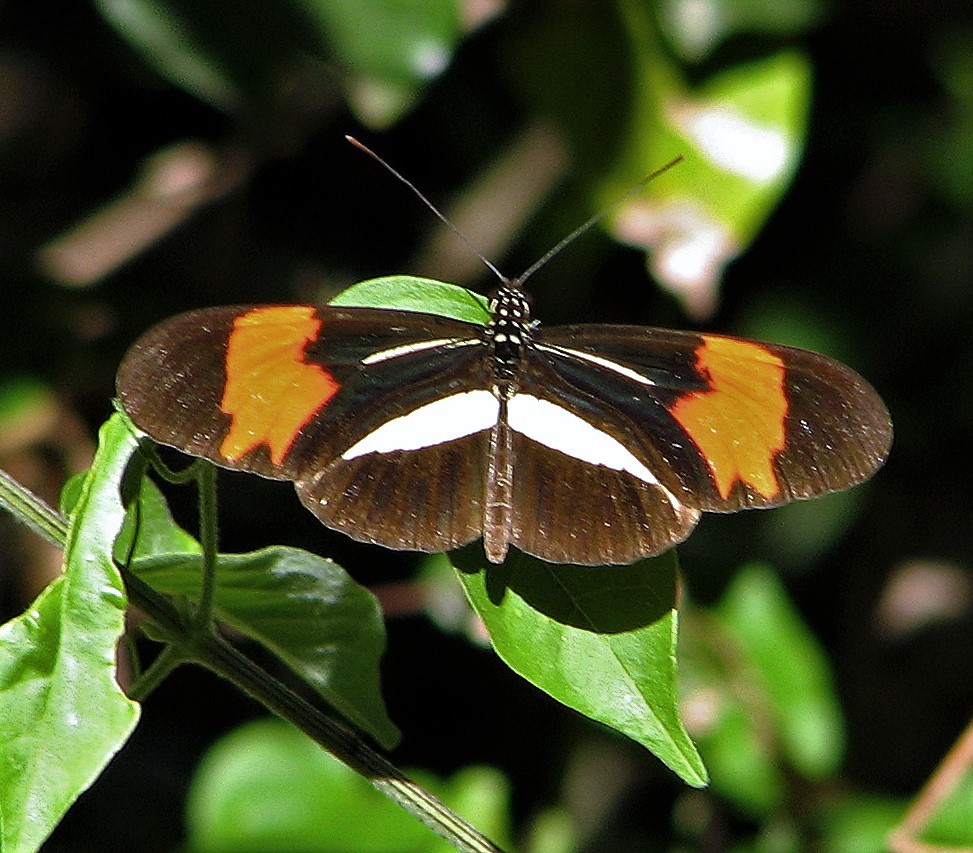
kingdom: Animalia
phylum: Arthropoda
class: Insecta
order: Lepidoptera
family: Nymphalidae
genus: Heliconius
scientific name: Heliconius erato
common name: Common patch longwing
